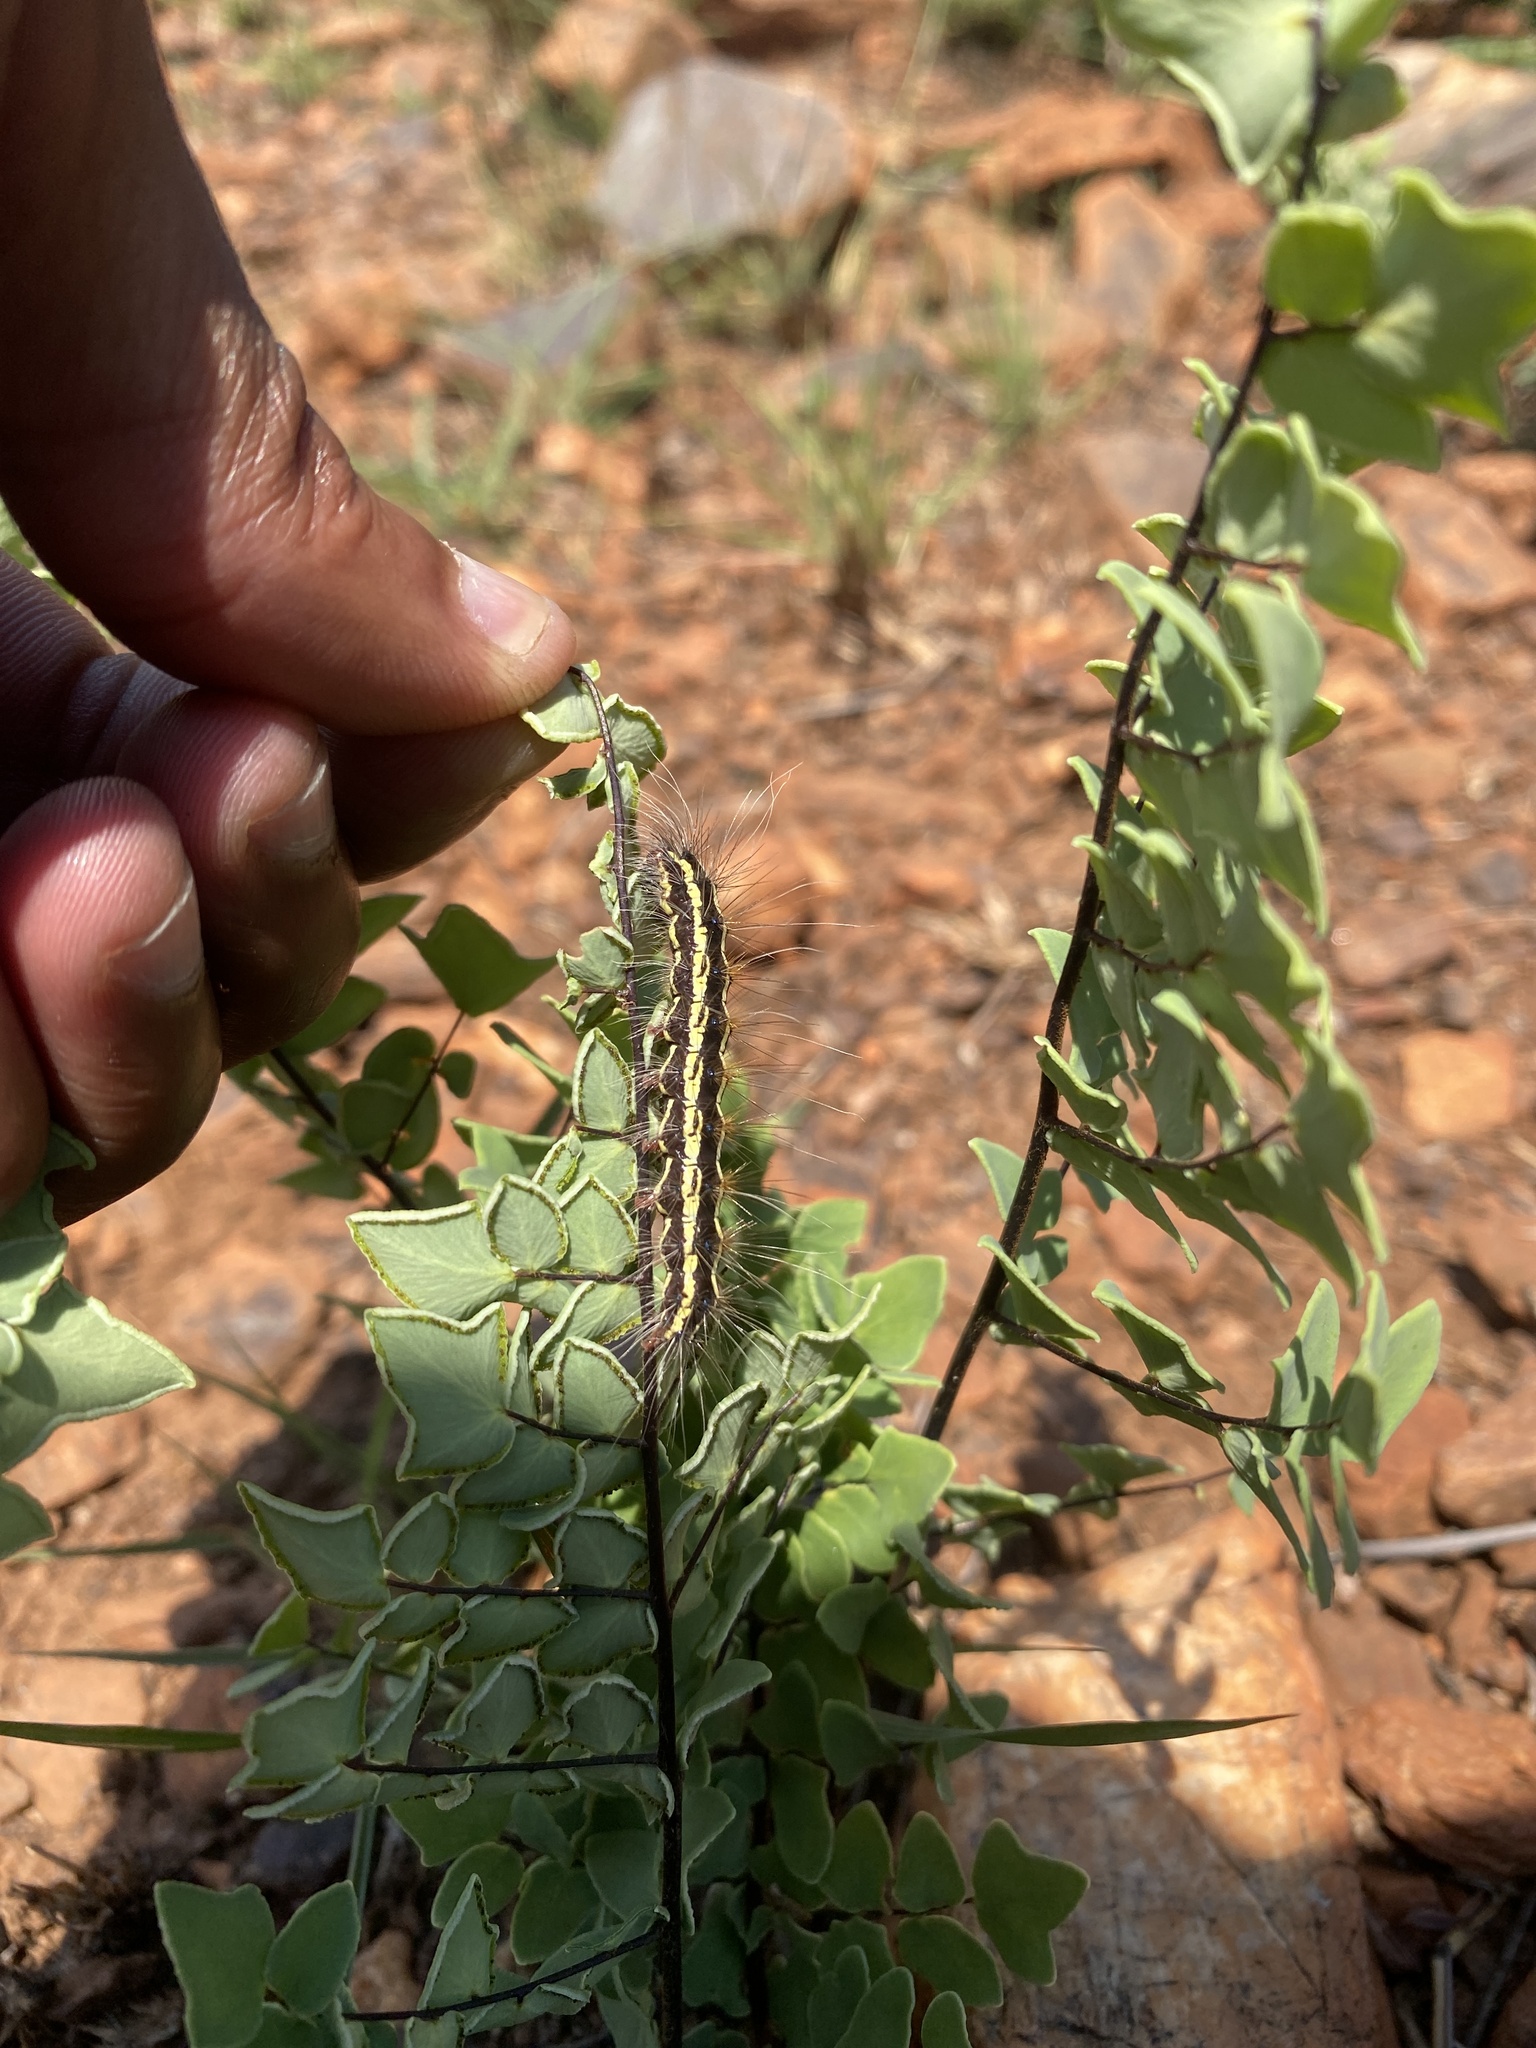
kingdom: Animalia
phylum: Arthropoda
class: Insecta
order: Lepidoptera
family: Erebidae
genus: Leucaloa
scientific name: Leucaloa eugraphica
